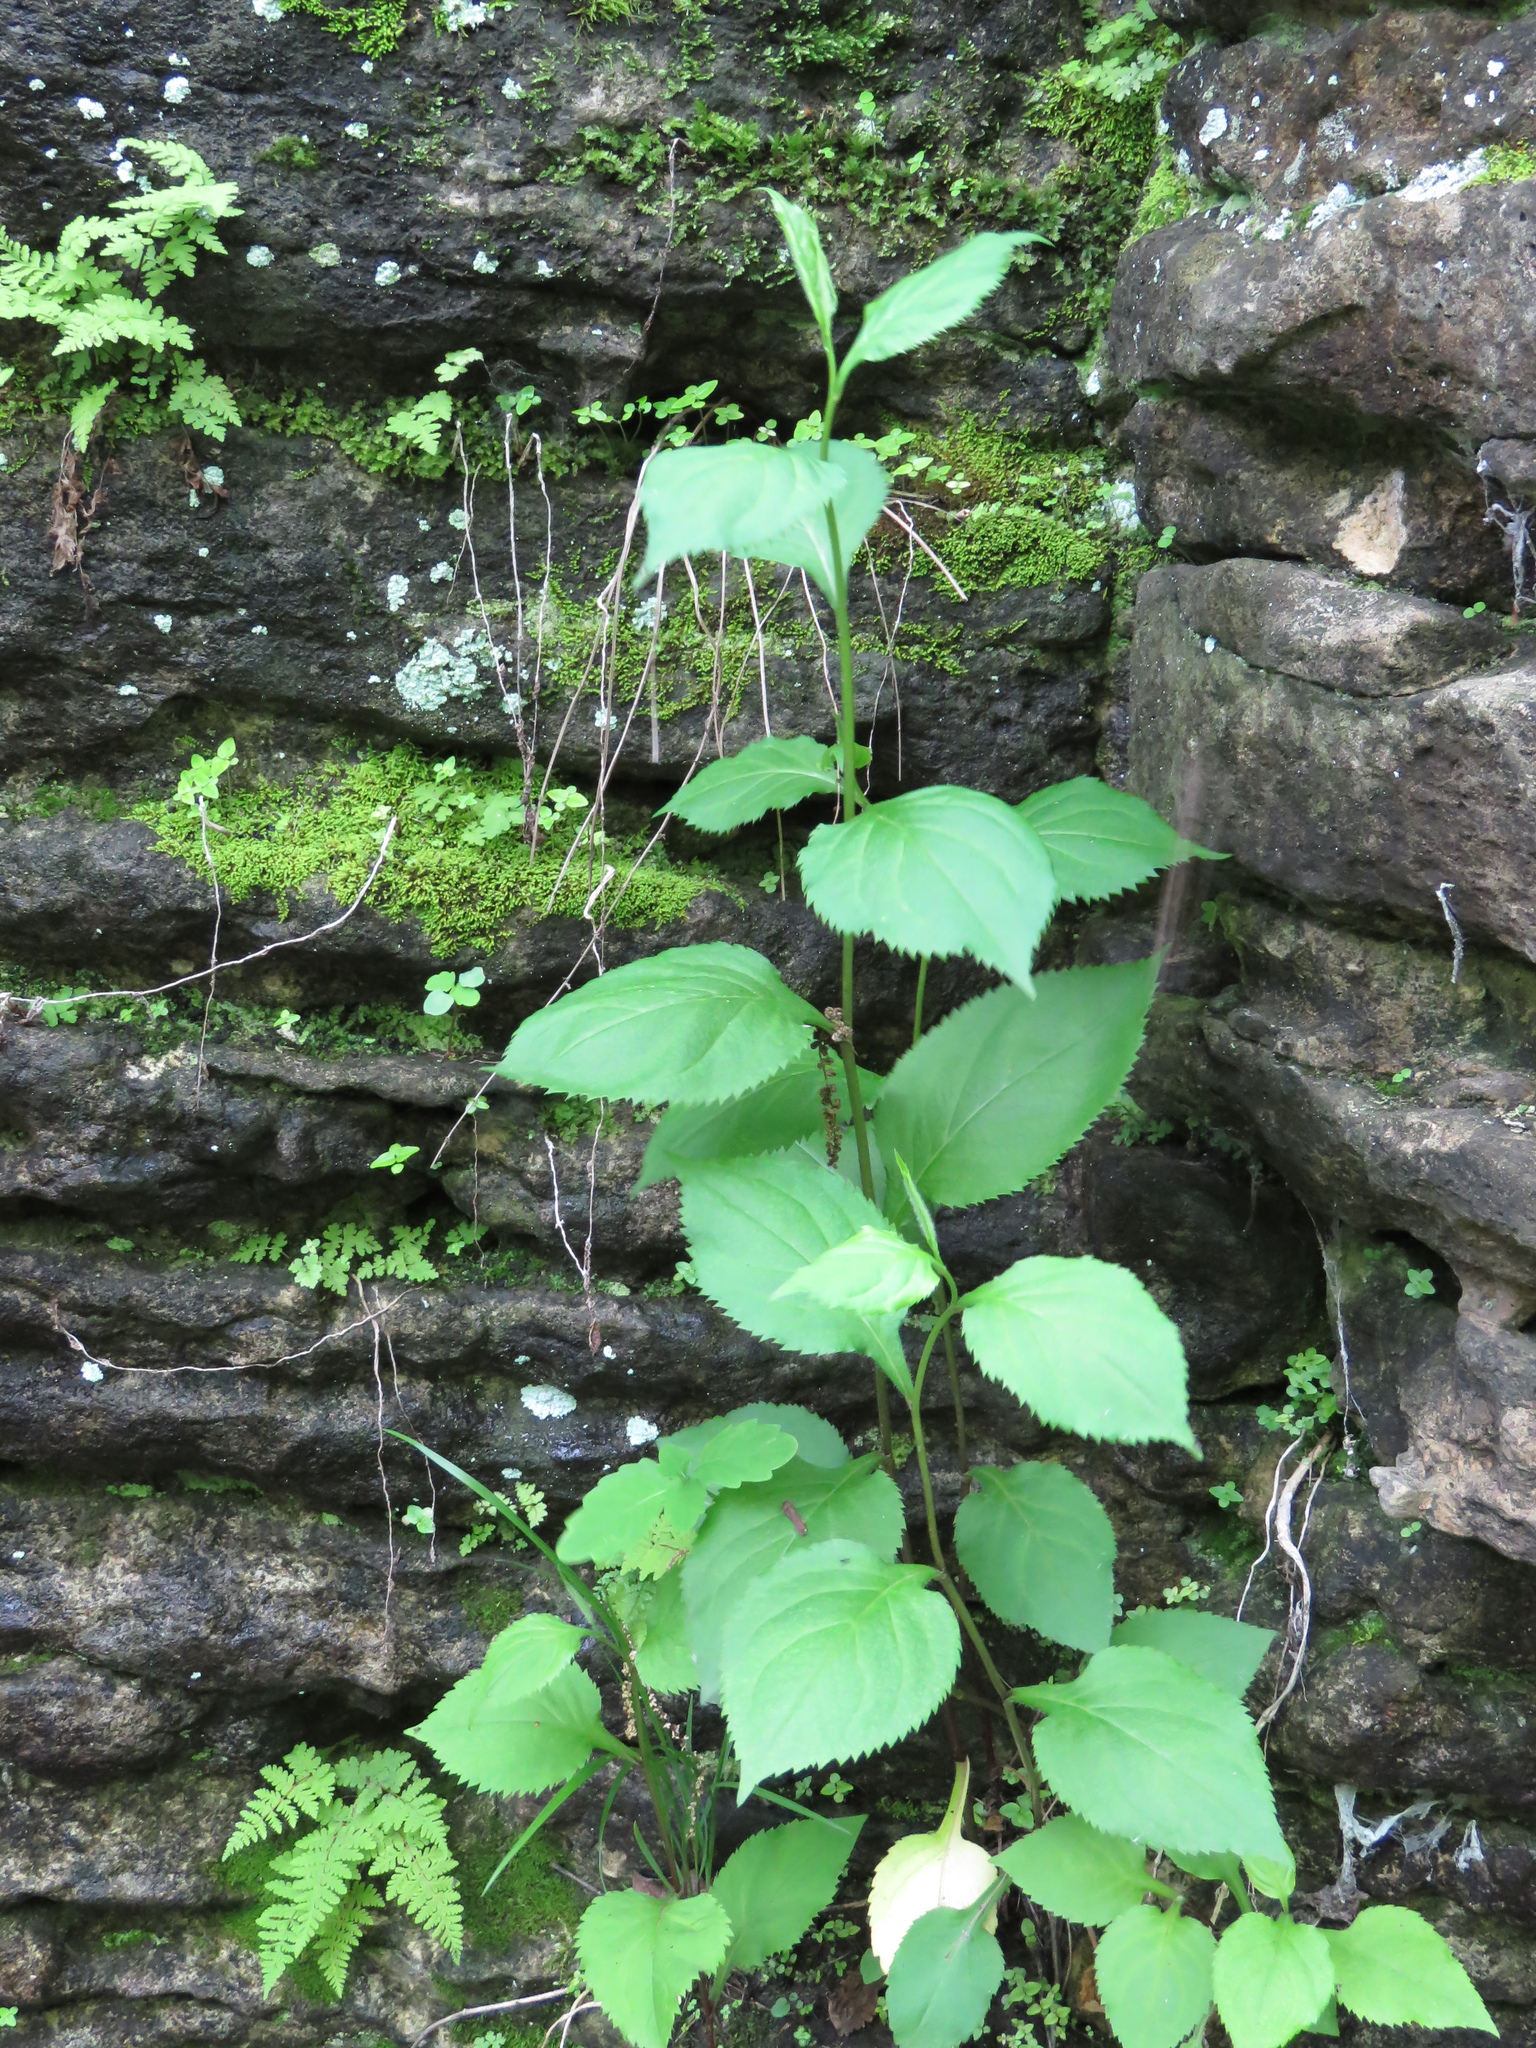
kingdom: Plantae
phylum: Tracheophyta
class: Magnoliopsida
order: Asterales
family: Asteraceae
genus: Solidago
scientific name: Solidago flexicaulis
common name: Zig-zag goldenrod
